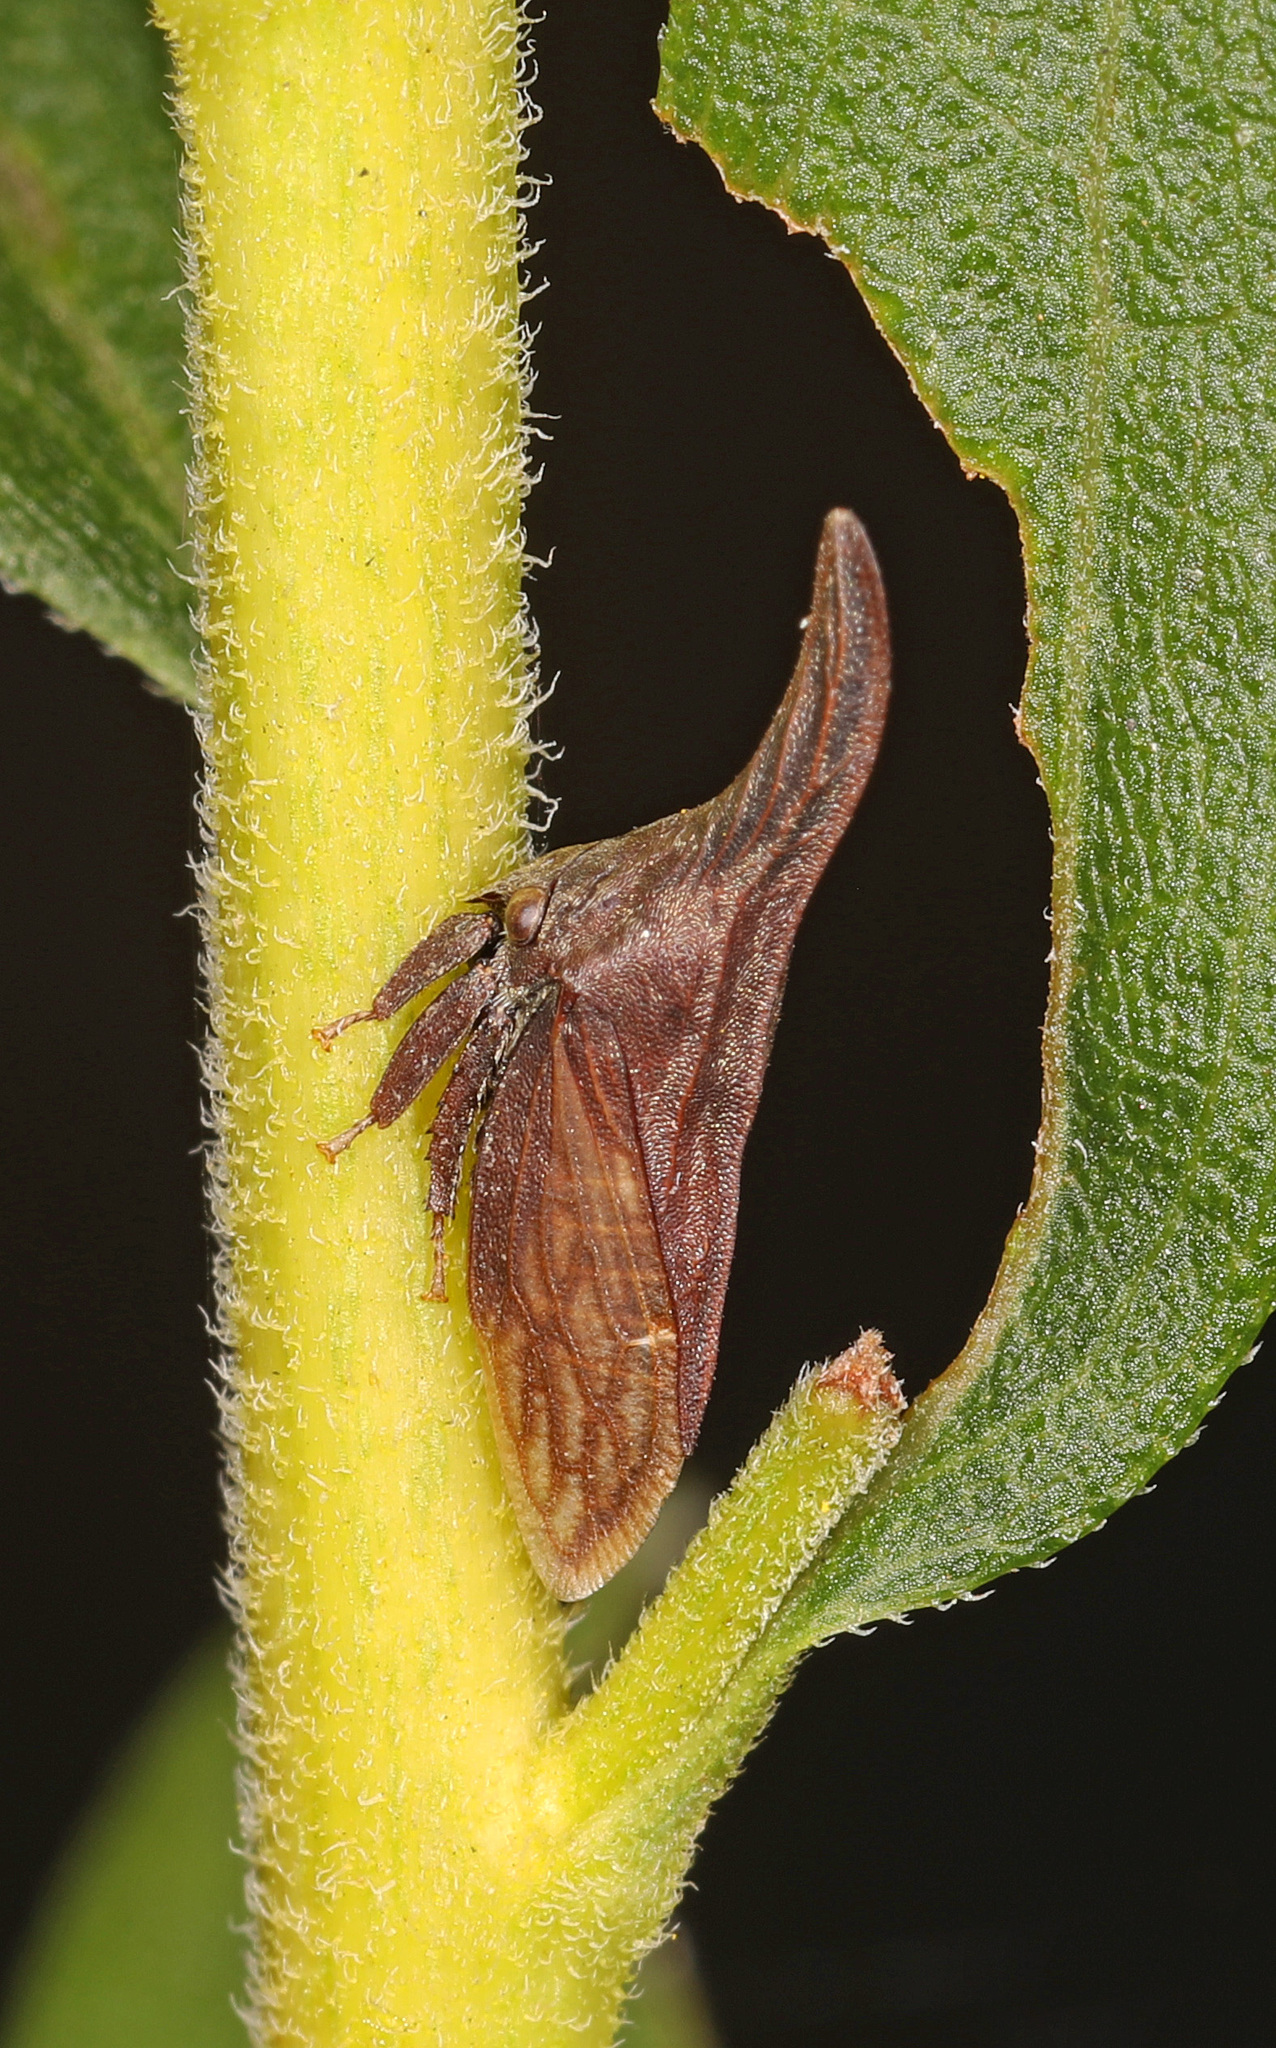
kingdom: Animalia
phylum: Arthropoda
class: Insecta
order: Hemiptera
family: Membracidae
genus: Enchenopa
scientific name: Enchenopa latipes
